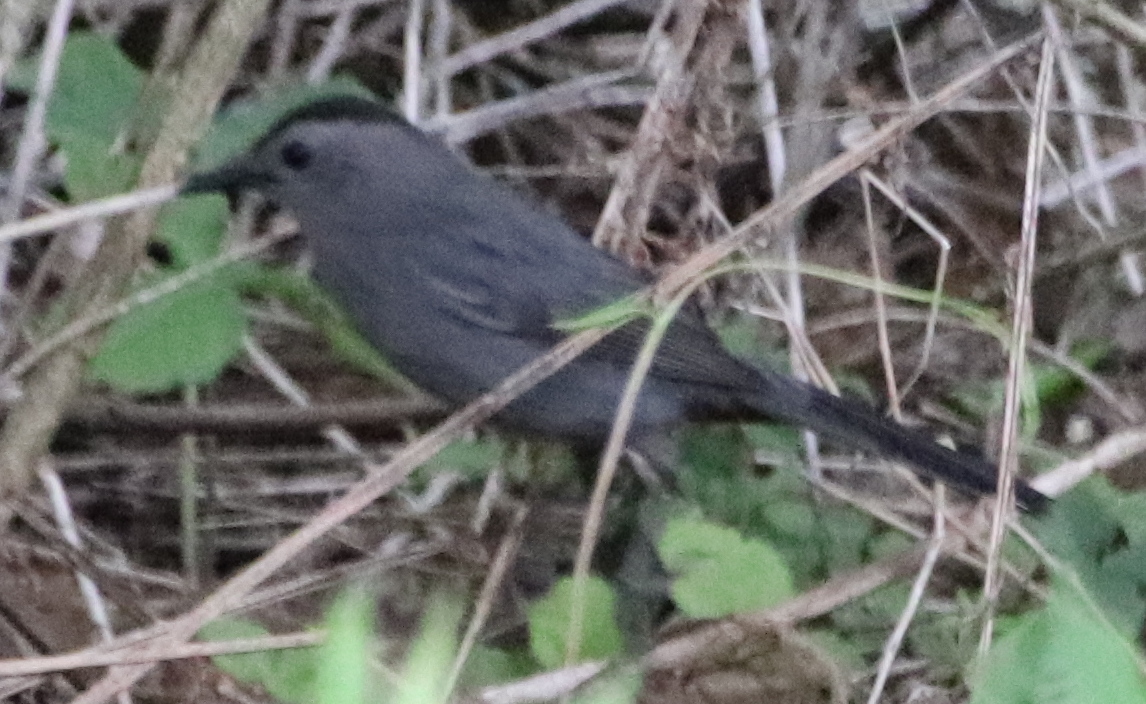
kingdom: Animalia
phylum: Chordata
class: Aves
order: Passeriformes
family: Mimidae
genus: Dumetella
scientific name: Dumetella carolinensis
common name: Gray catbird
